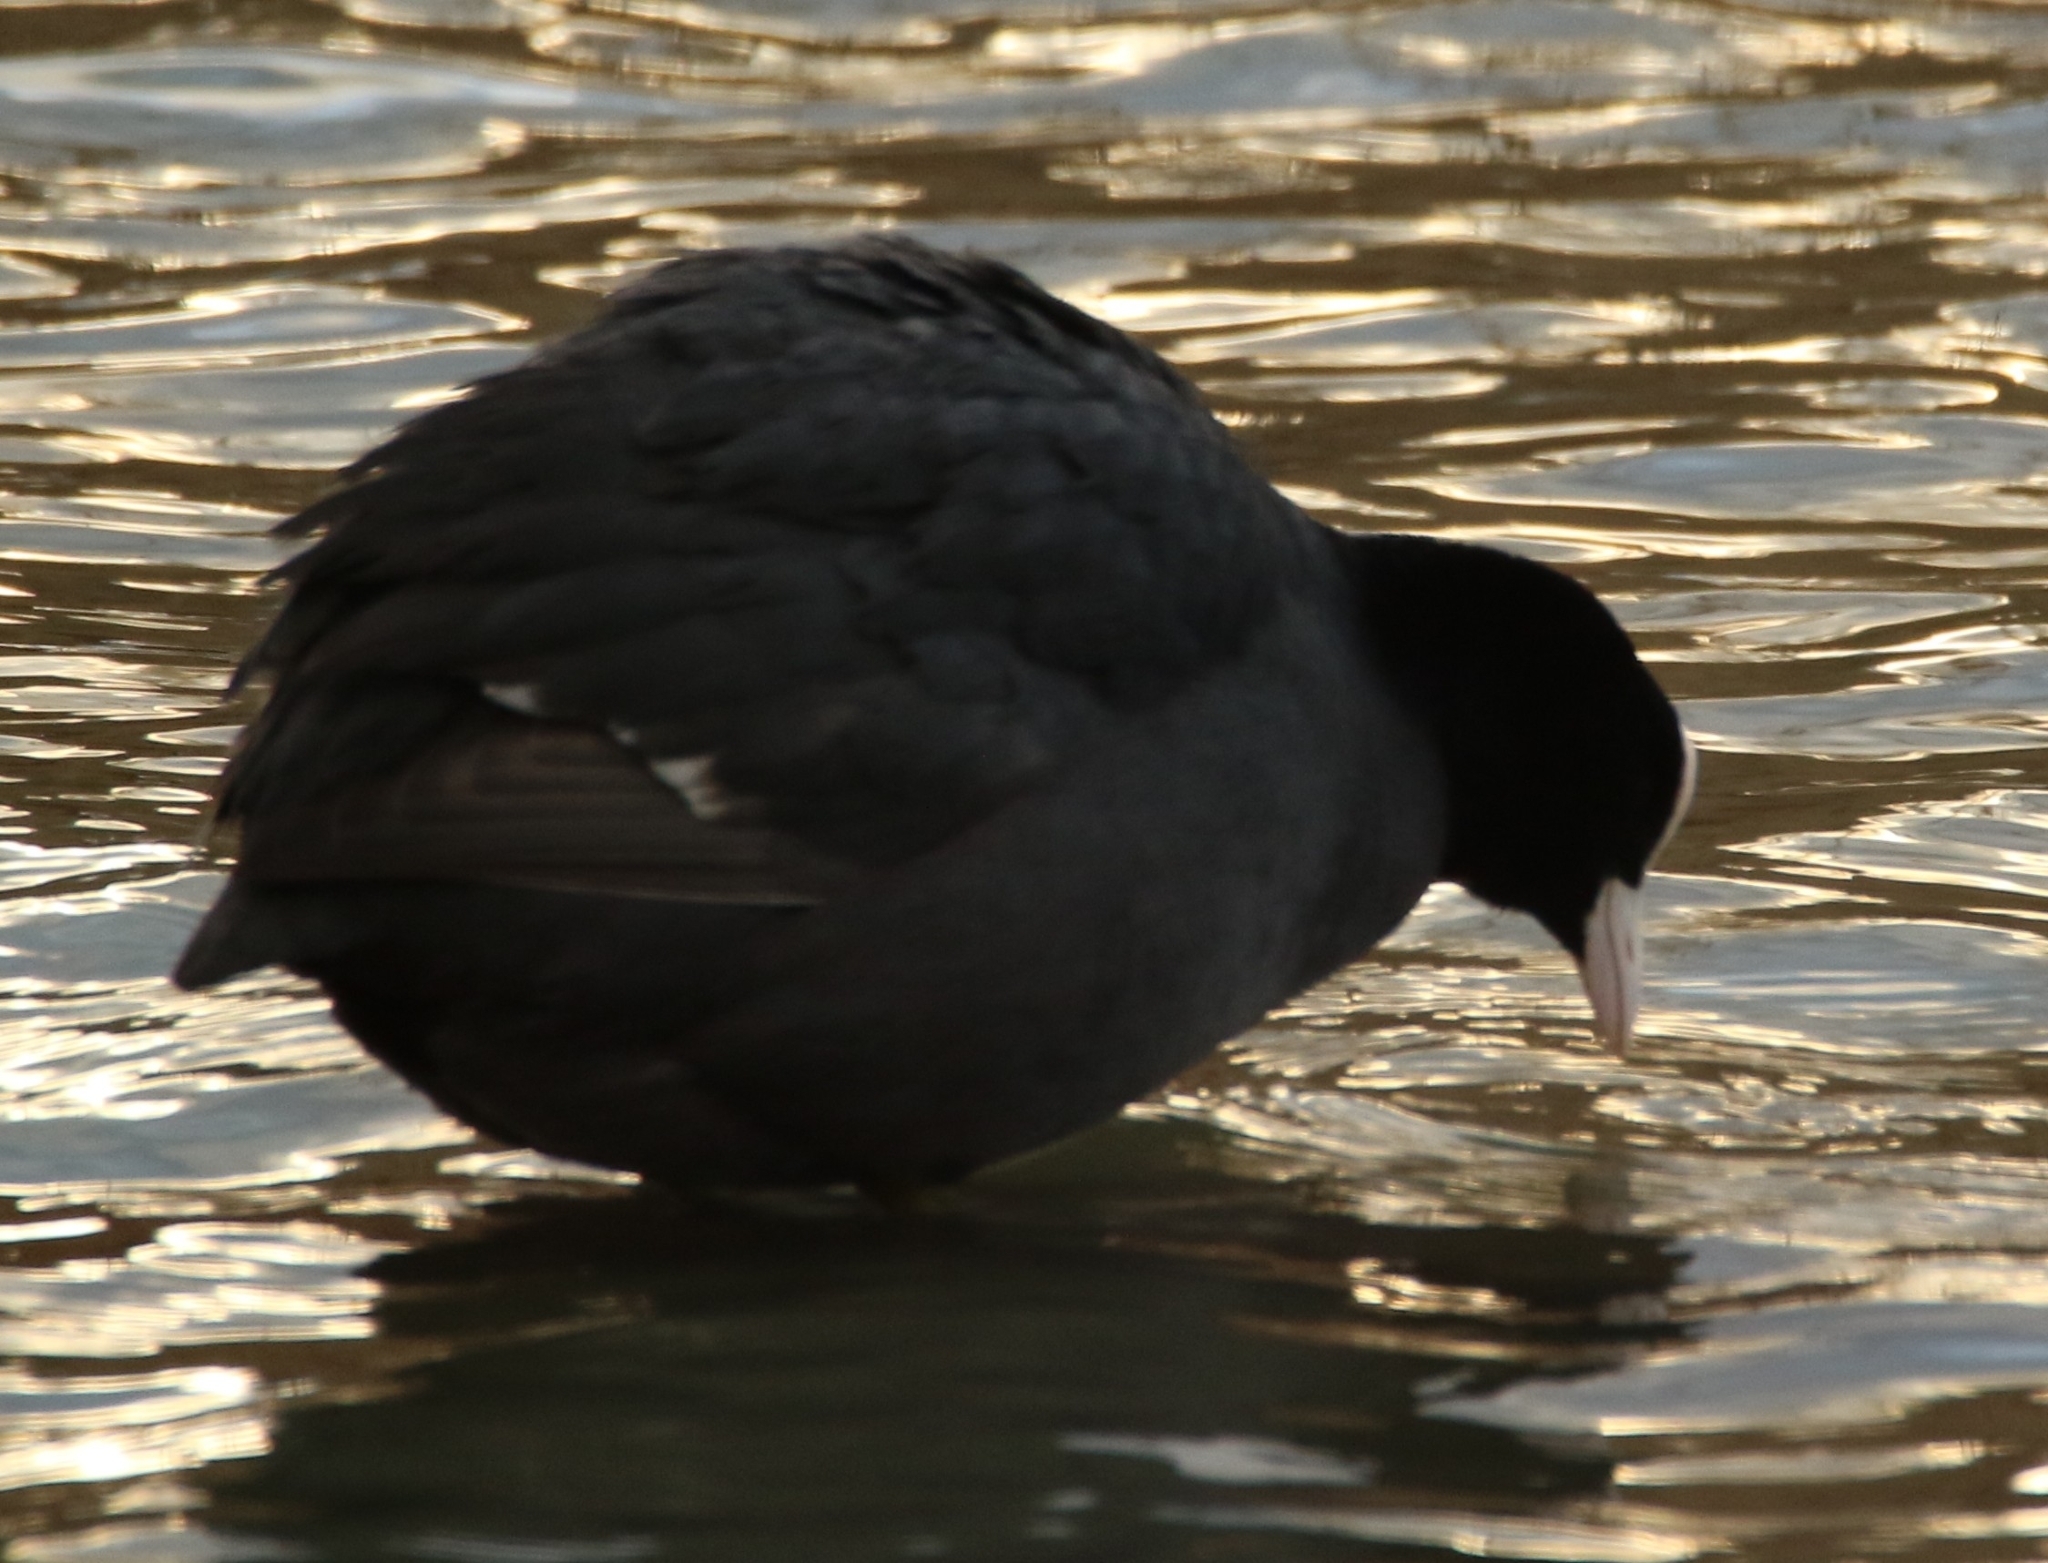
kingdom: Animalia
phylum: Chordata
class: Aves
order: Gruiformes
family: Rallidae
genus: Fulica
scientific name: Fulica atra
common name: Eurasian coot
